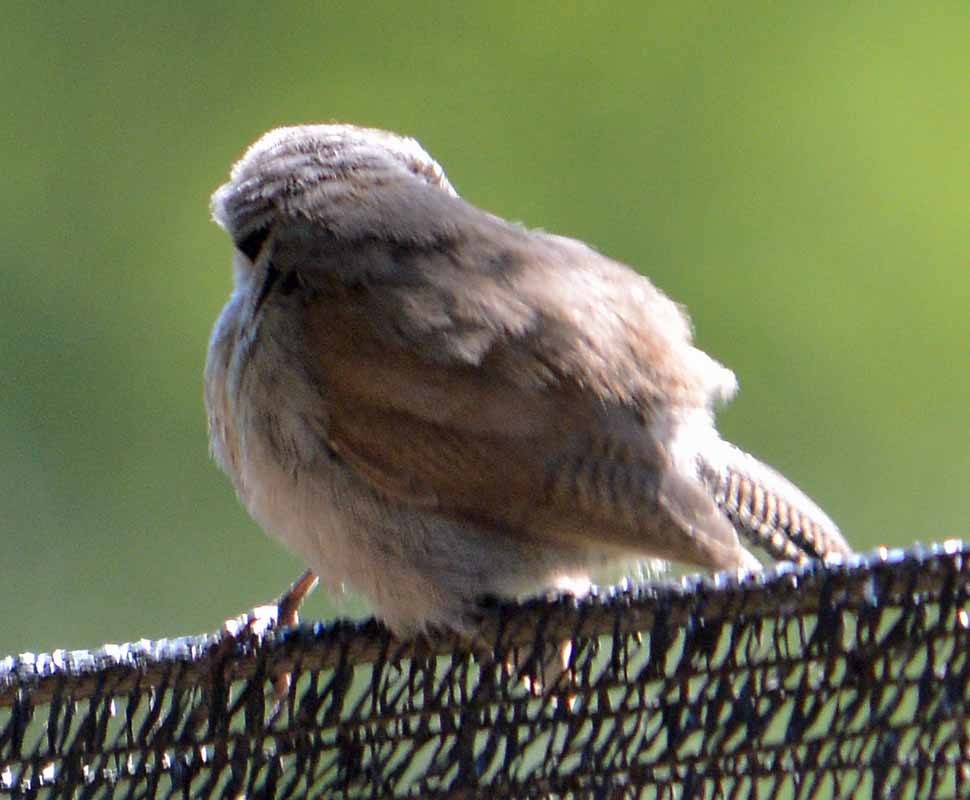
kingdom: Animalia
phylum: Chordata
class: Aves
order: Passeriformes
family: Troglodytidae
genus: Thryomanes
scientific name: Thryomanes bewickii
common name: Bewick's wren
